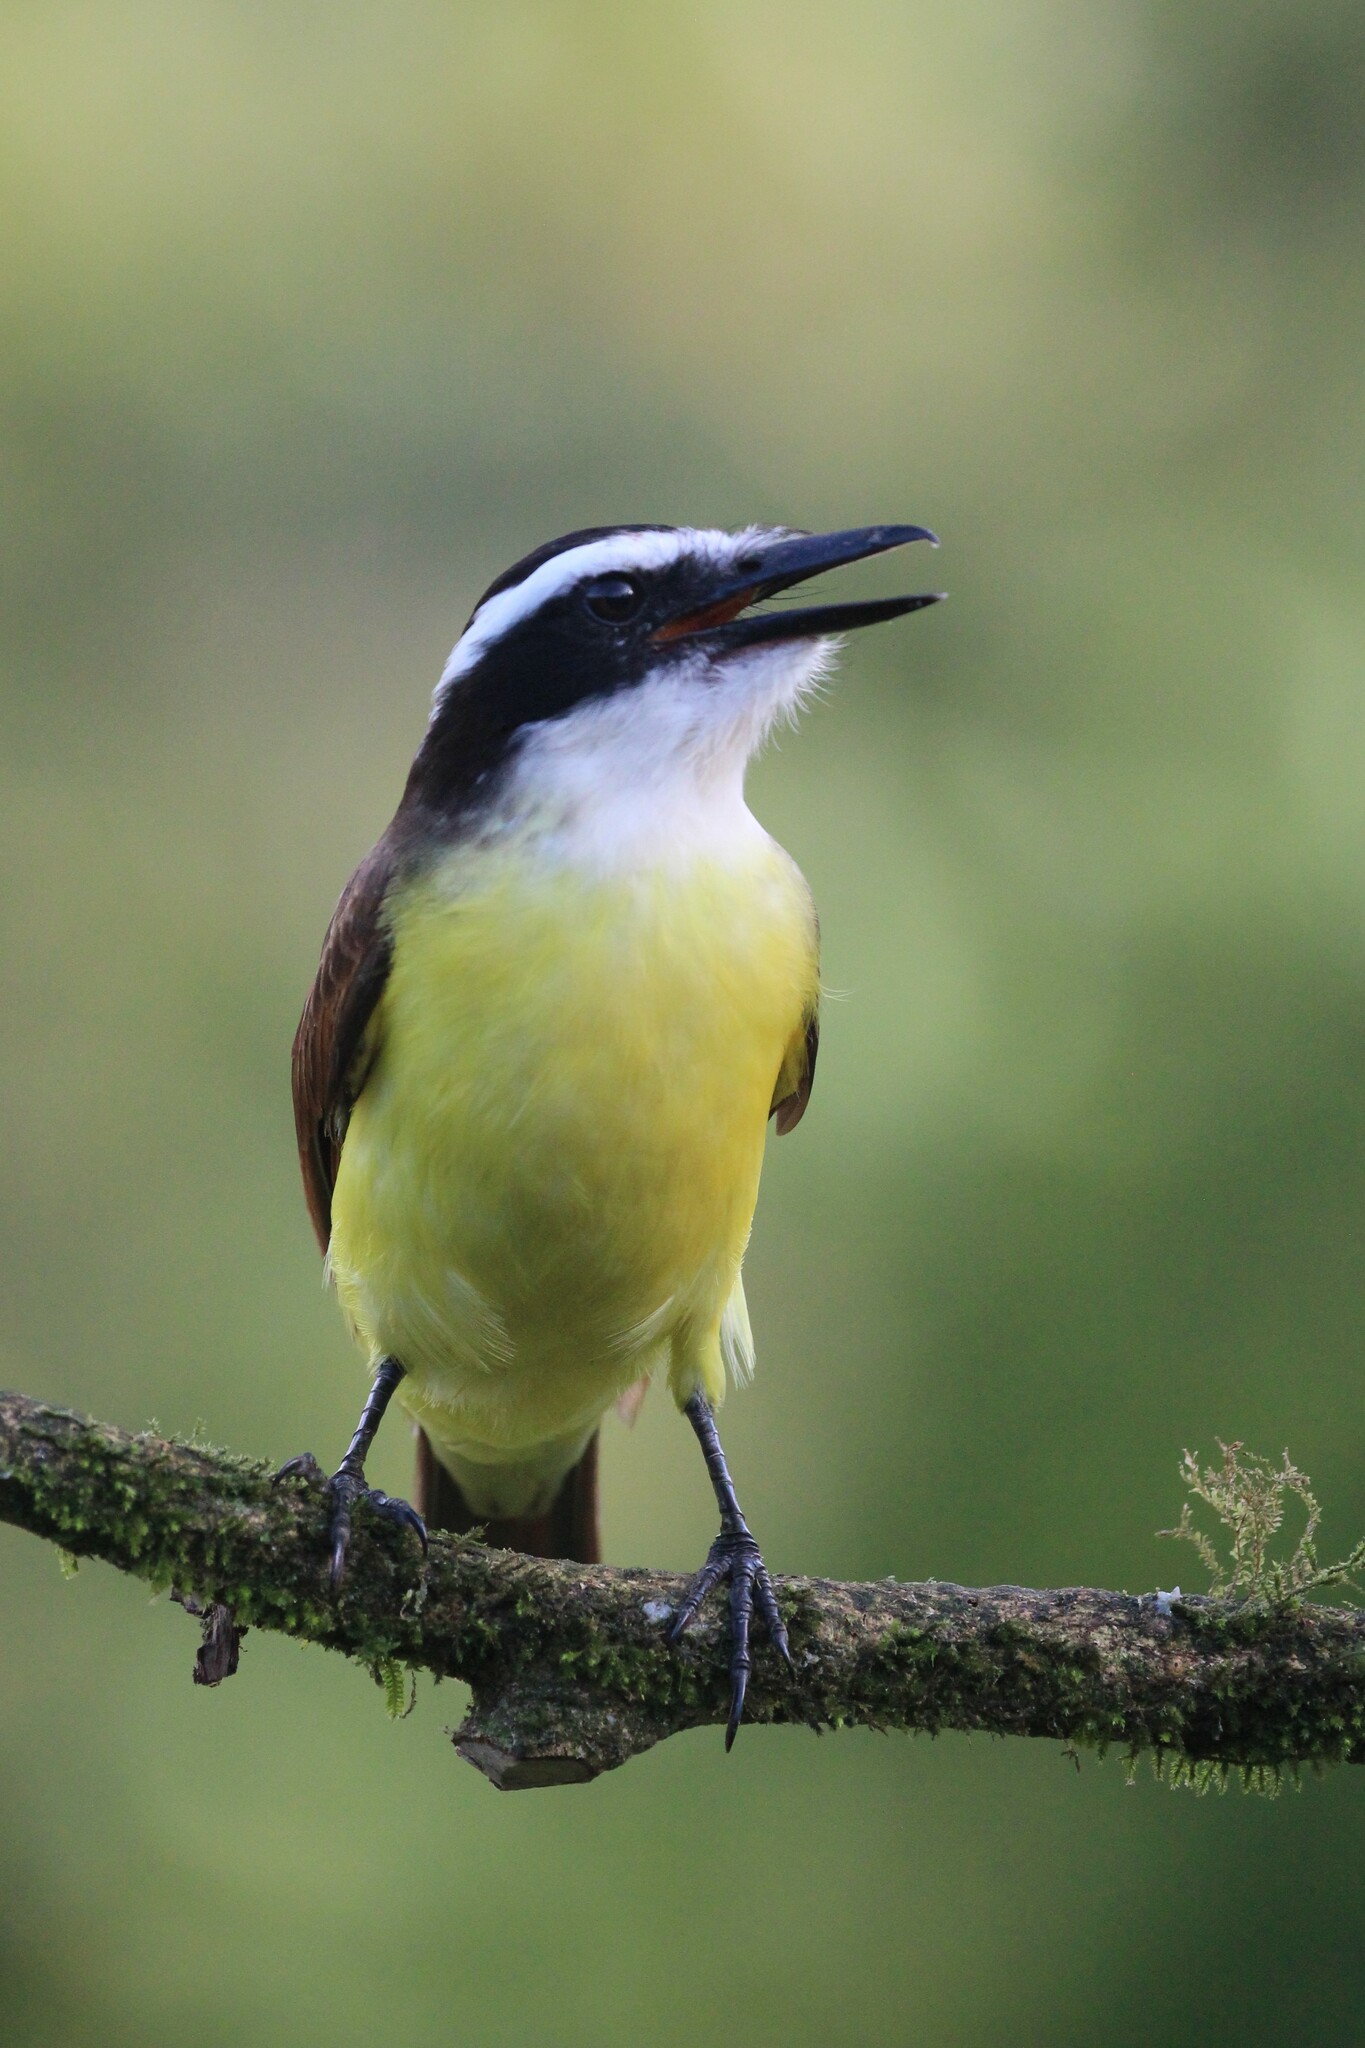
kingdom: Animalia
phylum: Chordata
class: Aves
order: Passeriformes
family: Tyrannidae
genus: Pitangus
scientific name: Pitangus sulphuratus
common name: Great kiskadee
